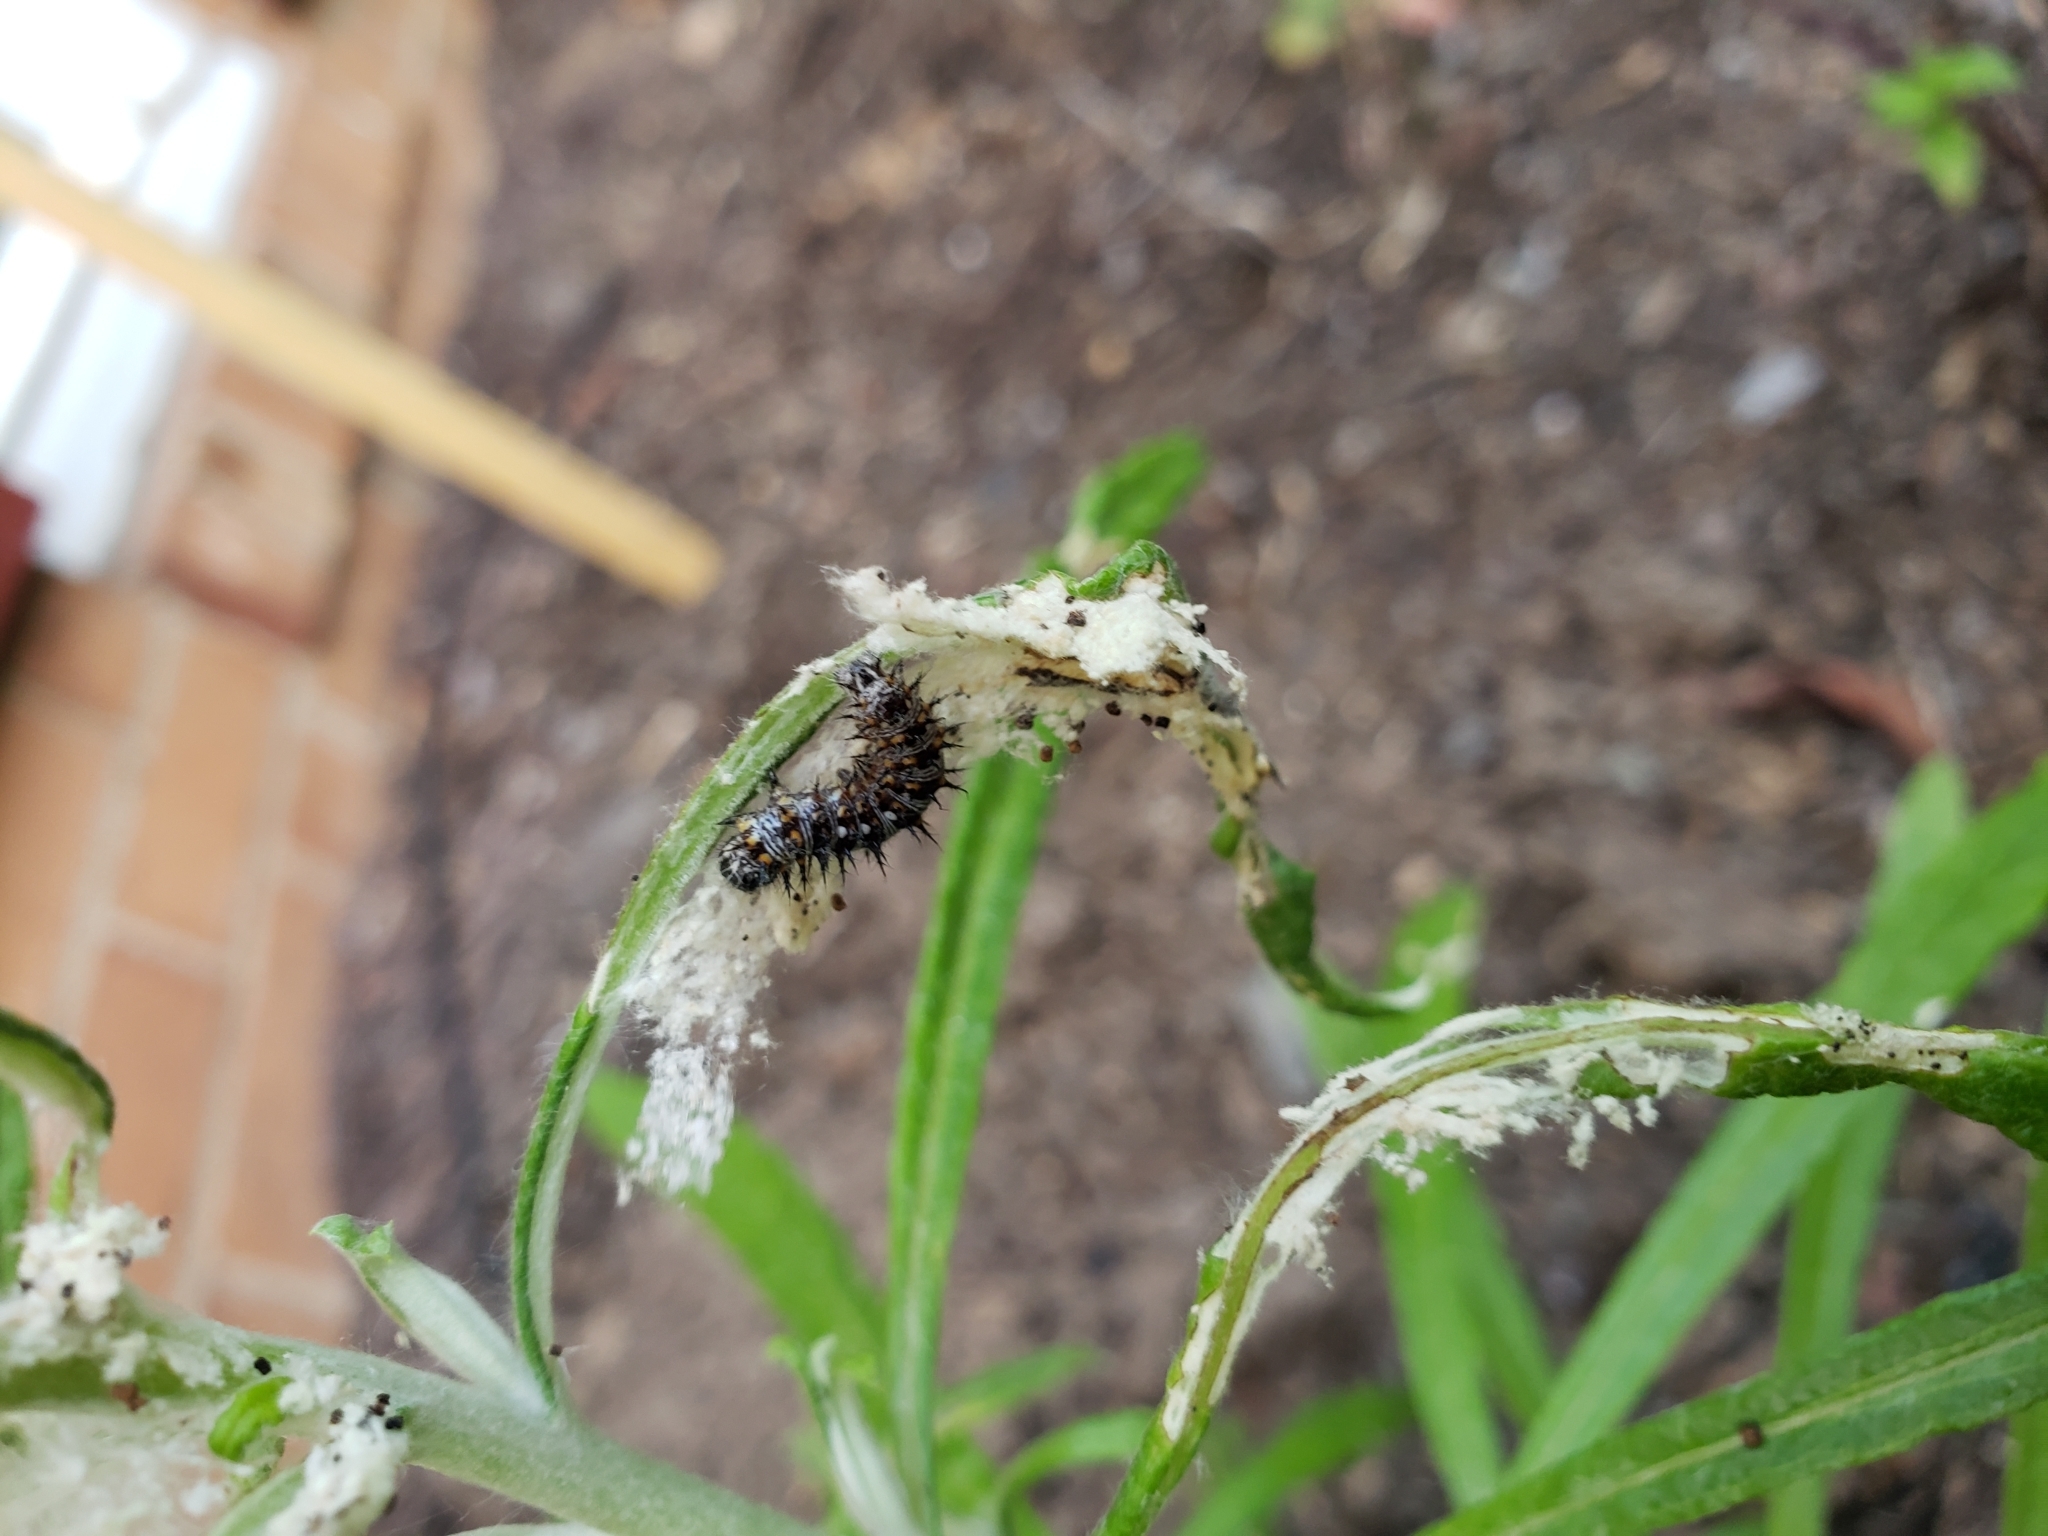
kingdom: Animalia
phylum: Arthropoda
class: Insecta
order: Lepidoptera
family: Nymphalidae
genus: Vanessa
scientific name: Vanessa virginiensis
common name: American lady
